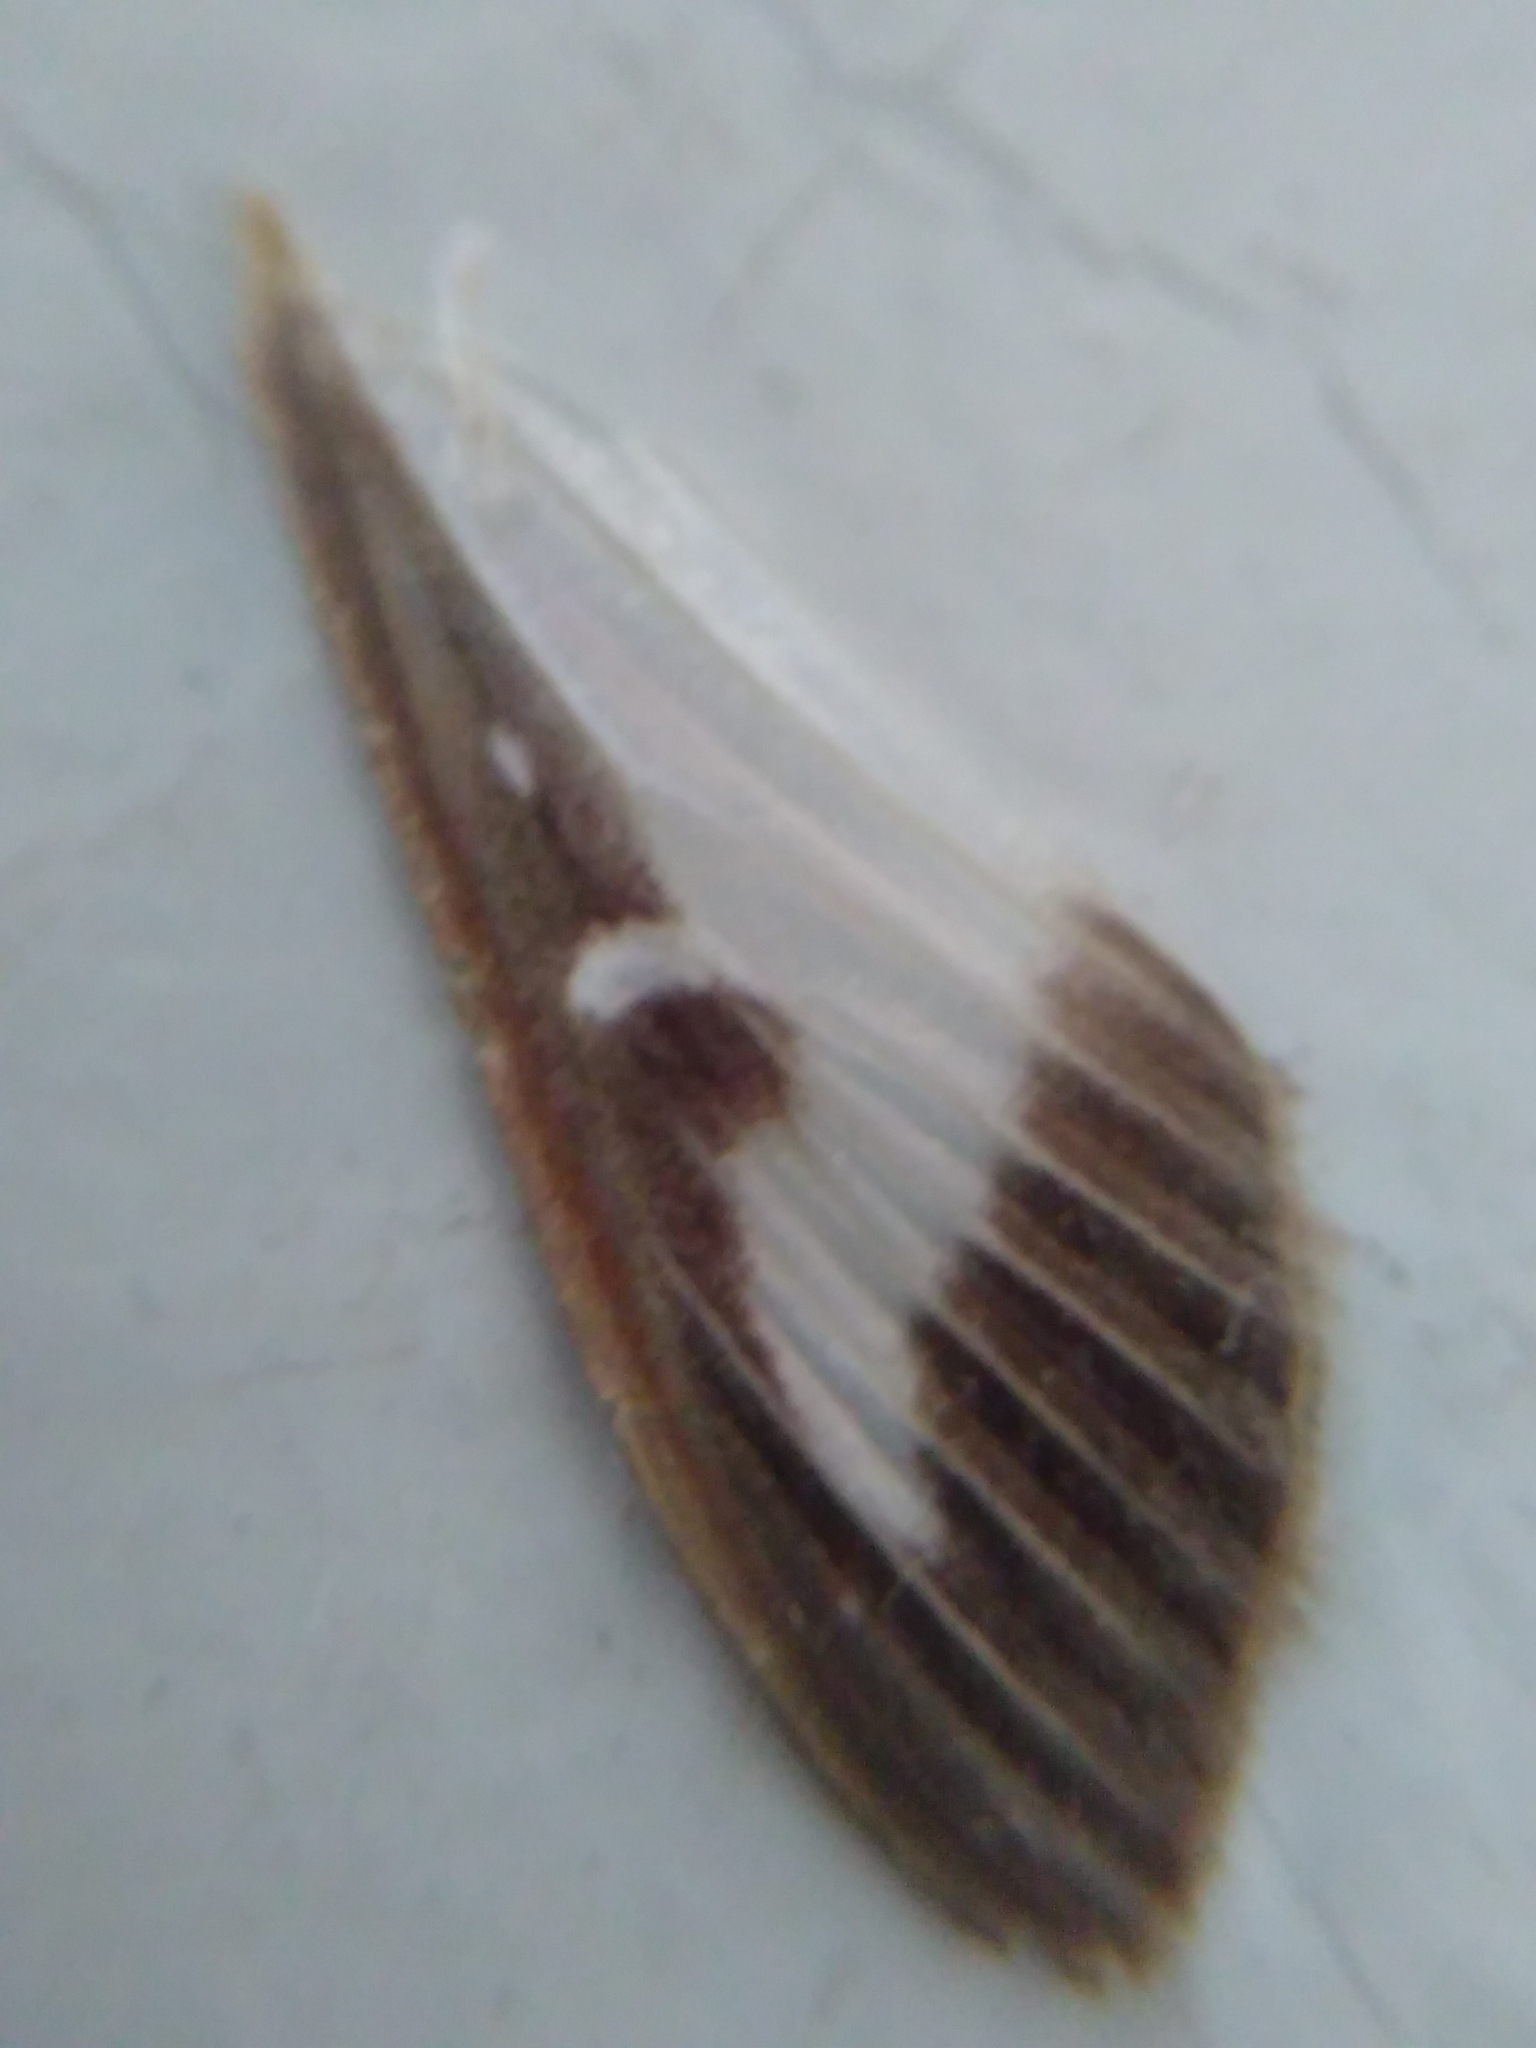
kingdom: Animalia
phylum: Arthropoda
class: Insecta
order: Lepidoptera
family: Crambidae
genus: Cydalima
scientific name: Cydalima perspectalis
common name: Box tree moth
